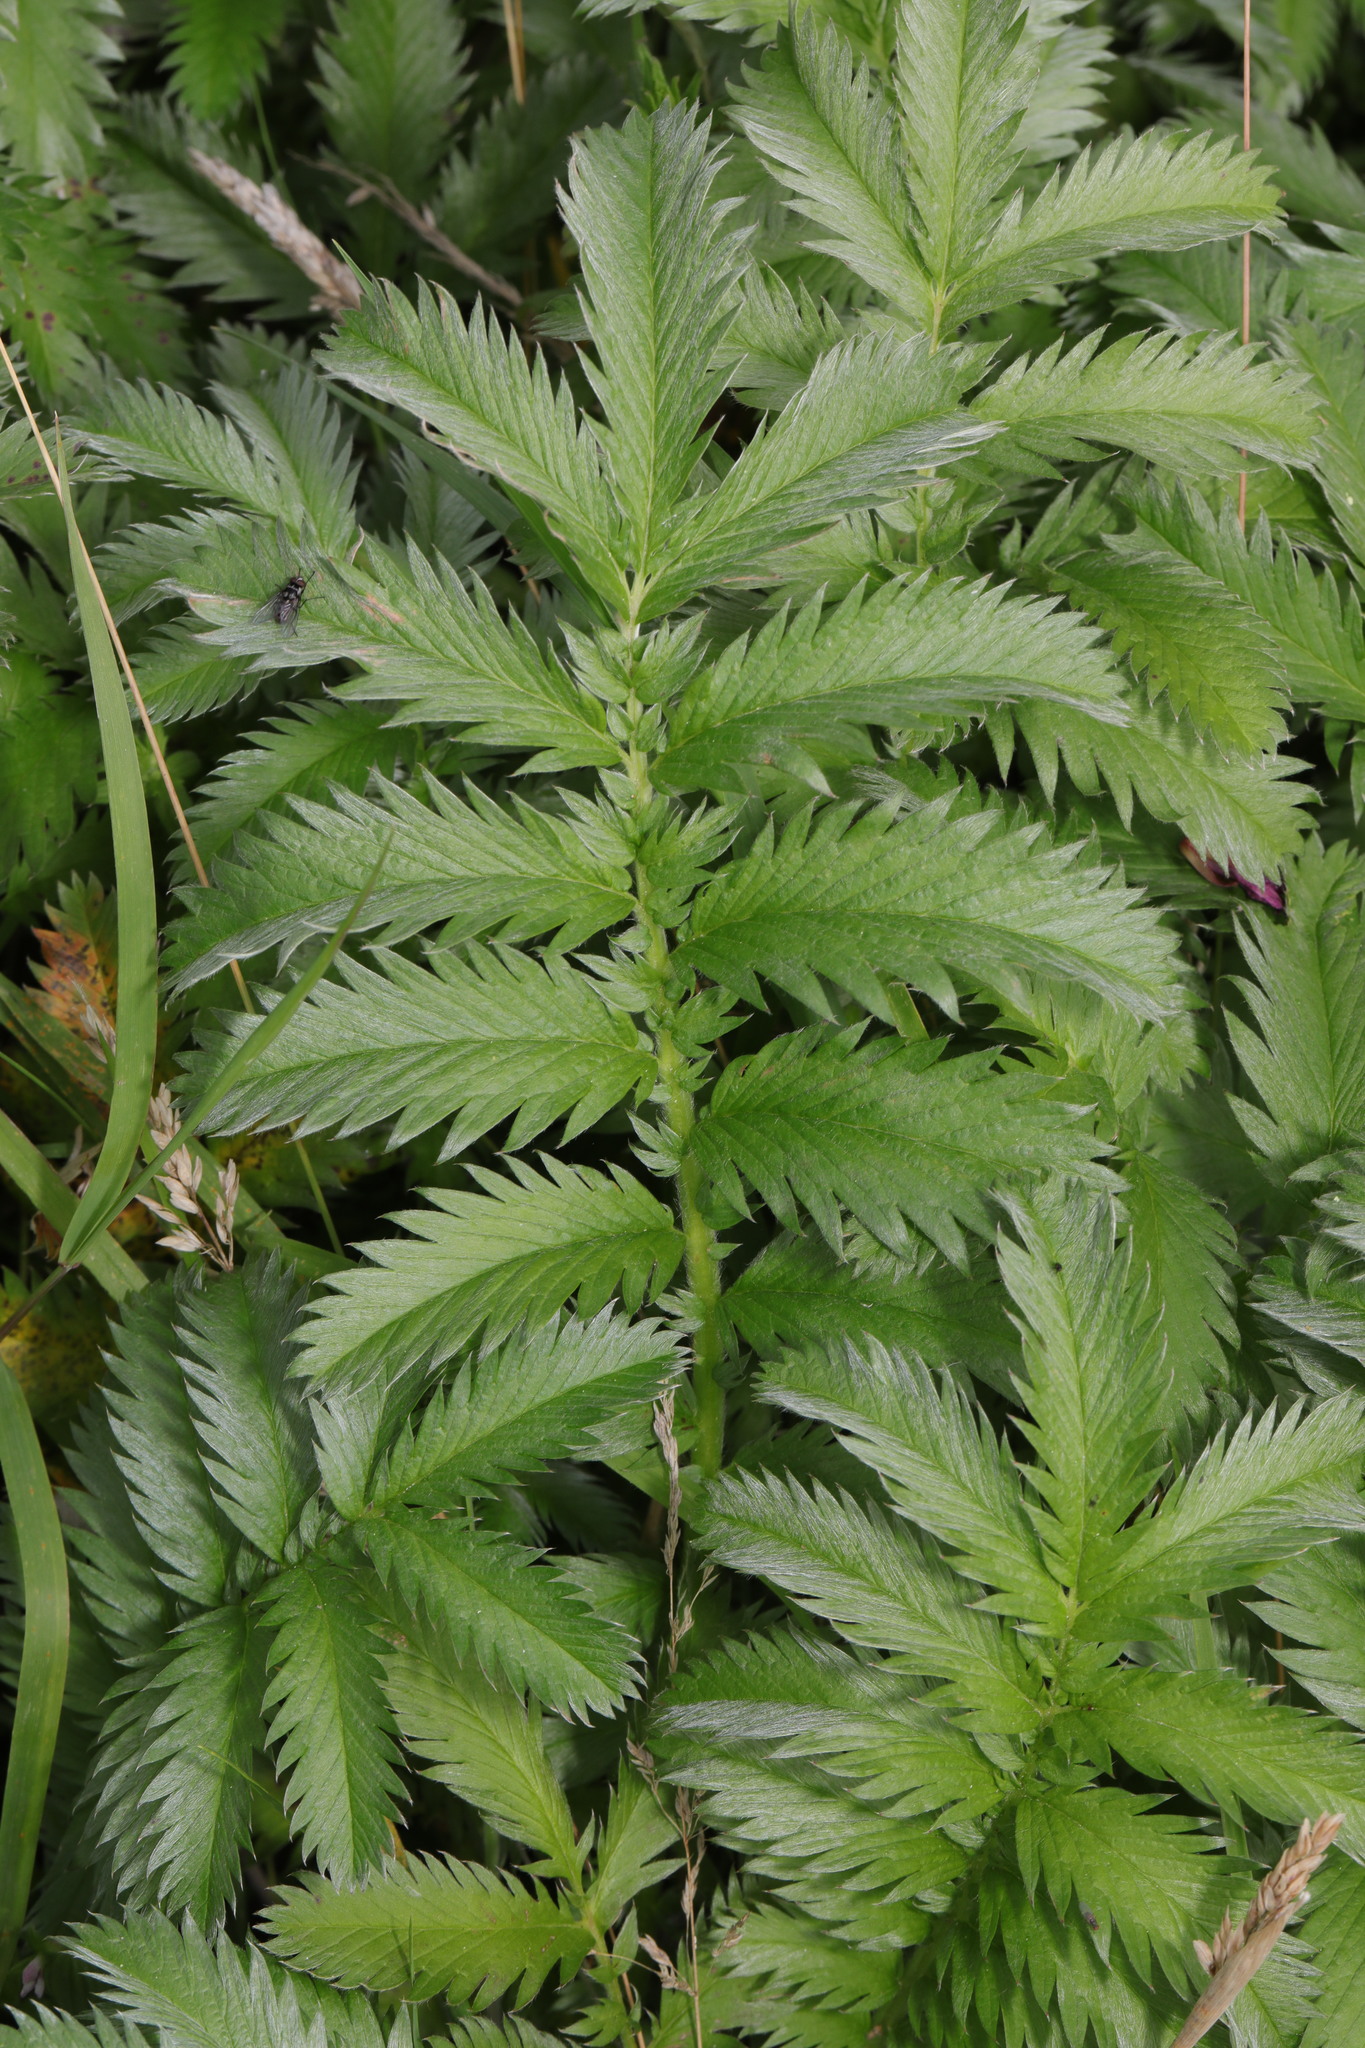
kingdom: Plantae
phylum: Tracheophyta
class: Magnoliopsida
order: Rosales
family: Rosaceae
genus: Argentina
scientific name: Argentina anserina
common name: Common silverweed
